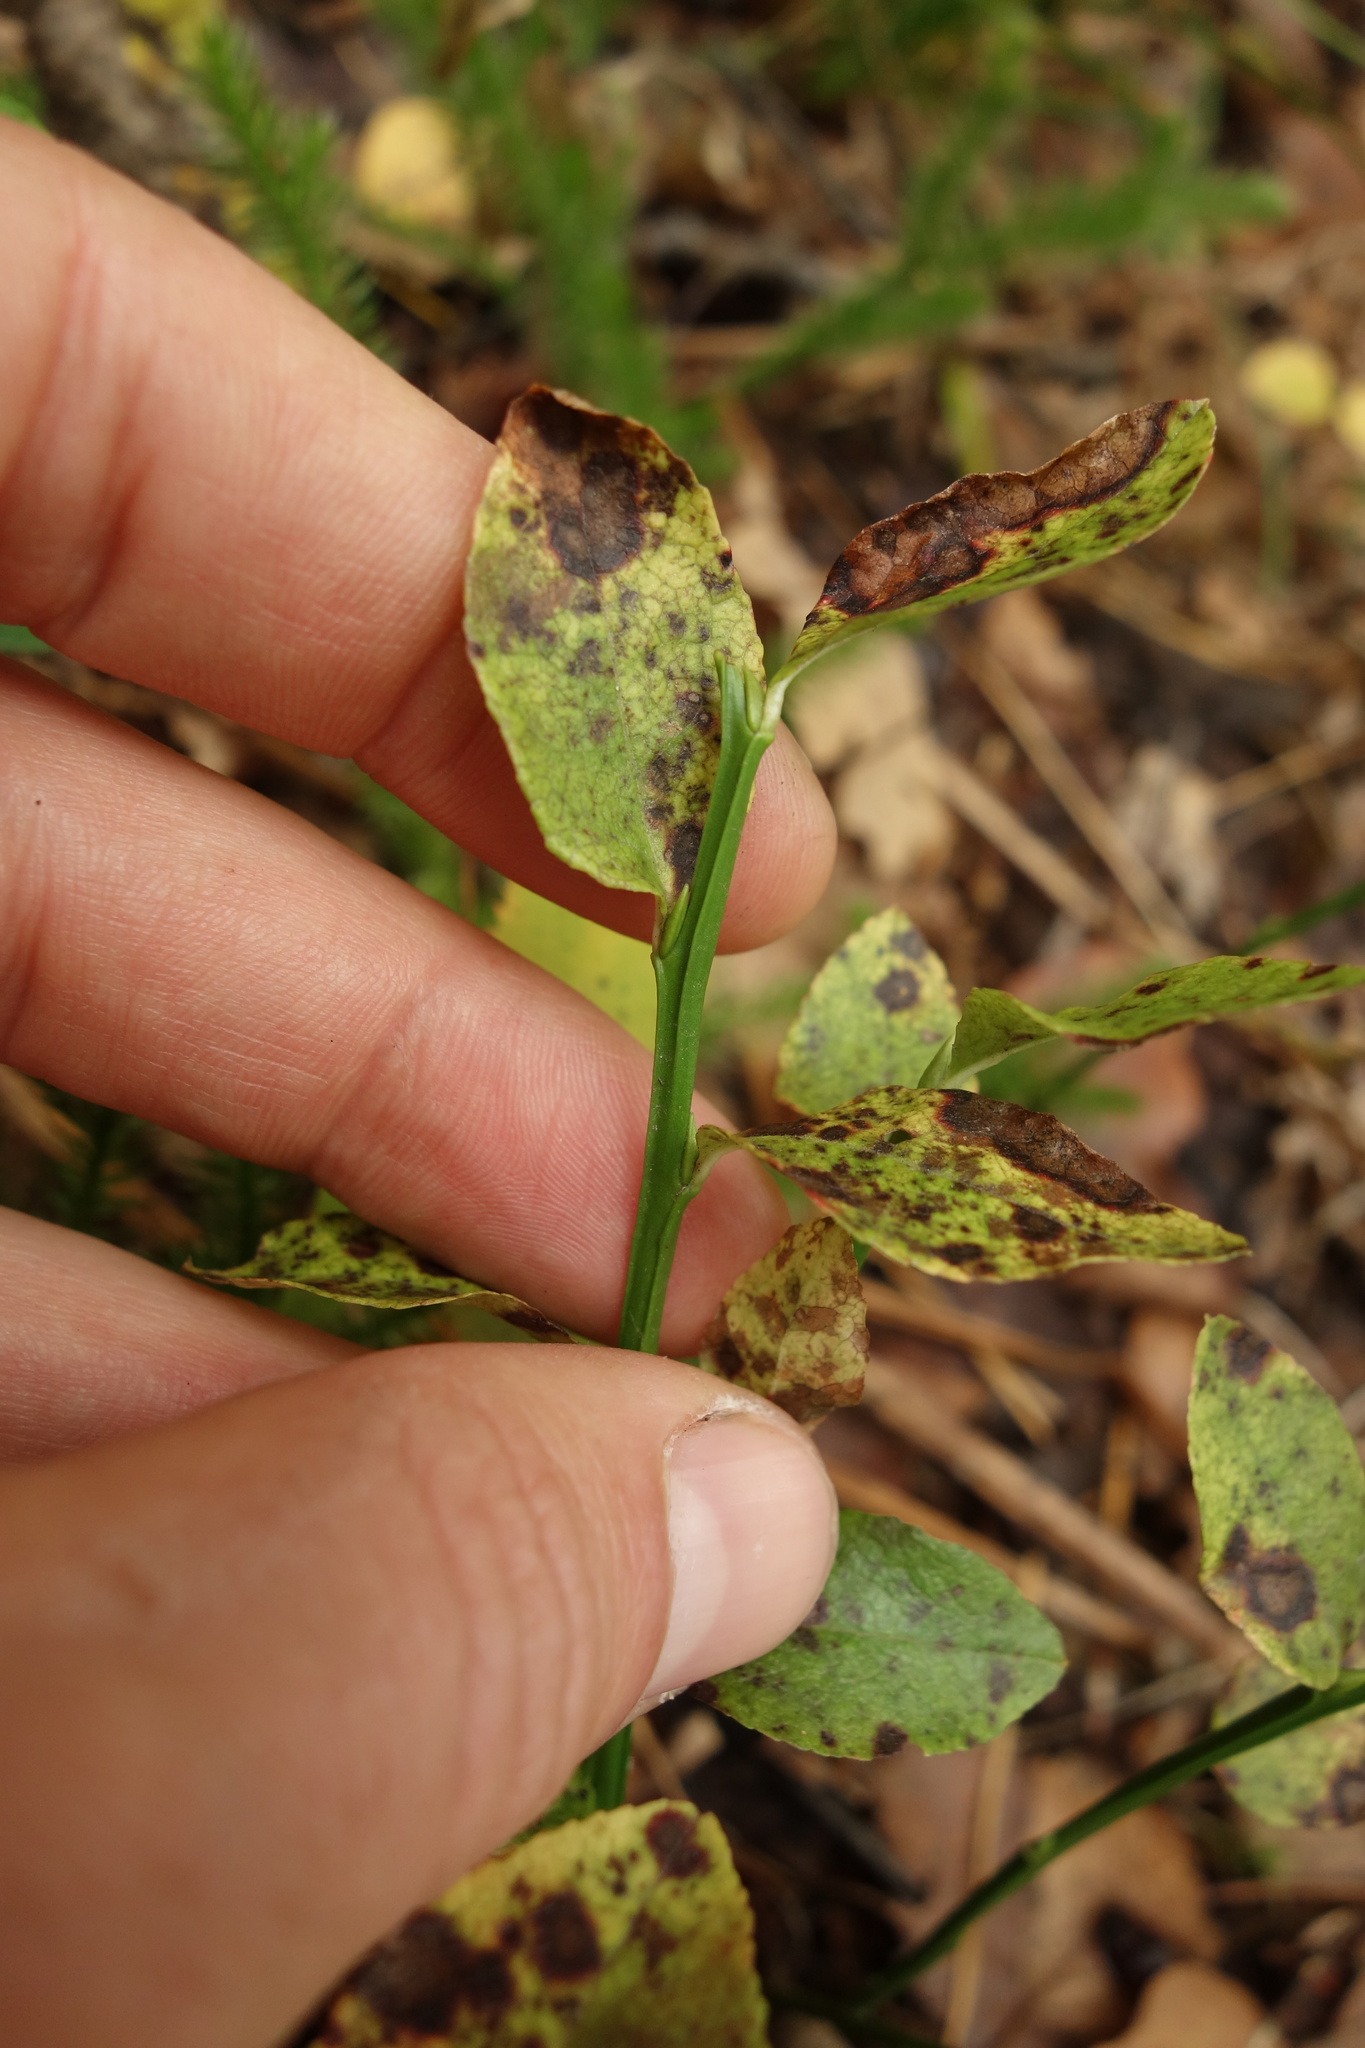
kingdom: Plantae
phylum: Tracheophyta
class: Magnoliopsida
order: Ericales
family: Ericaceae
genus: Vaccinium
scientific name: Vaccinium myrtillus
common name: Bilberry
